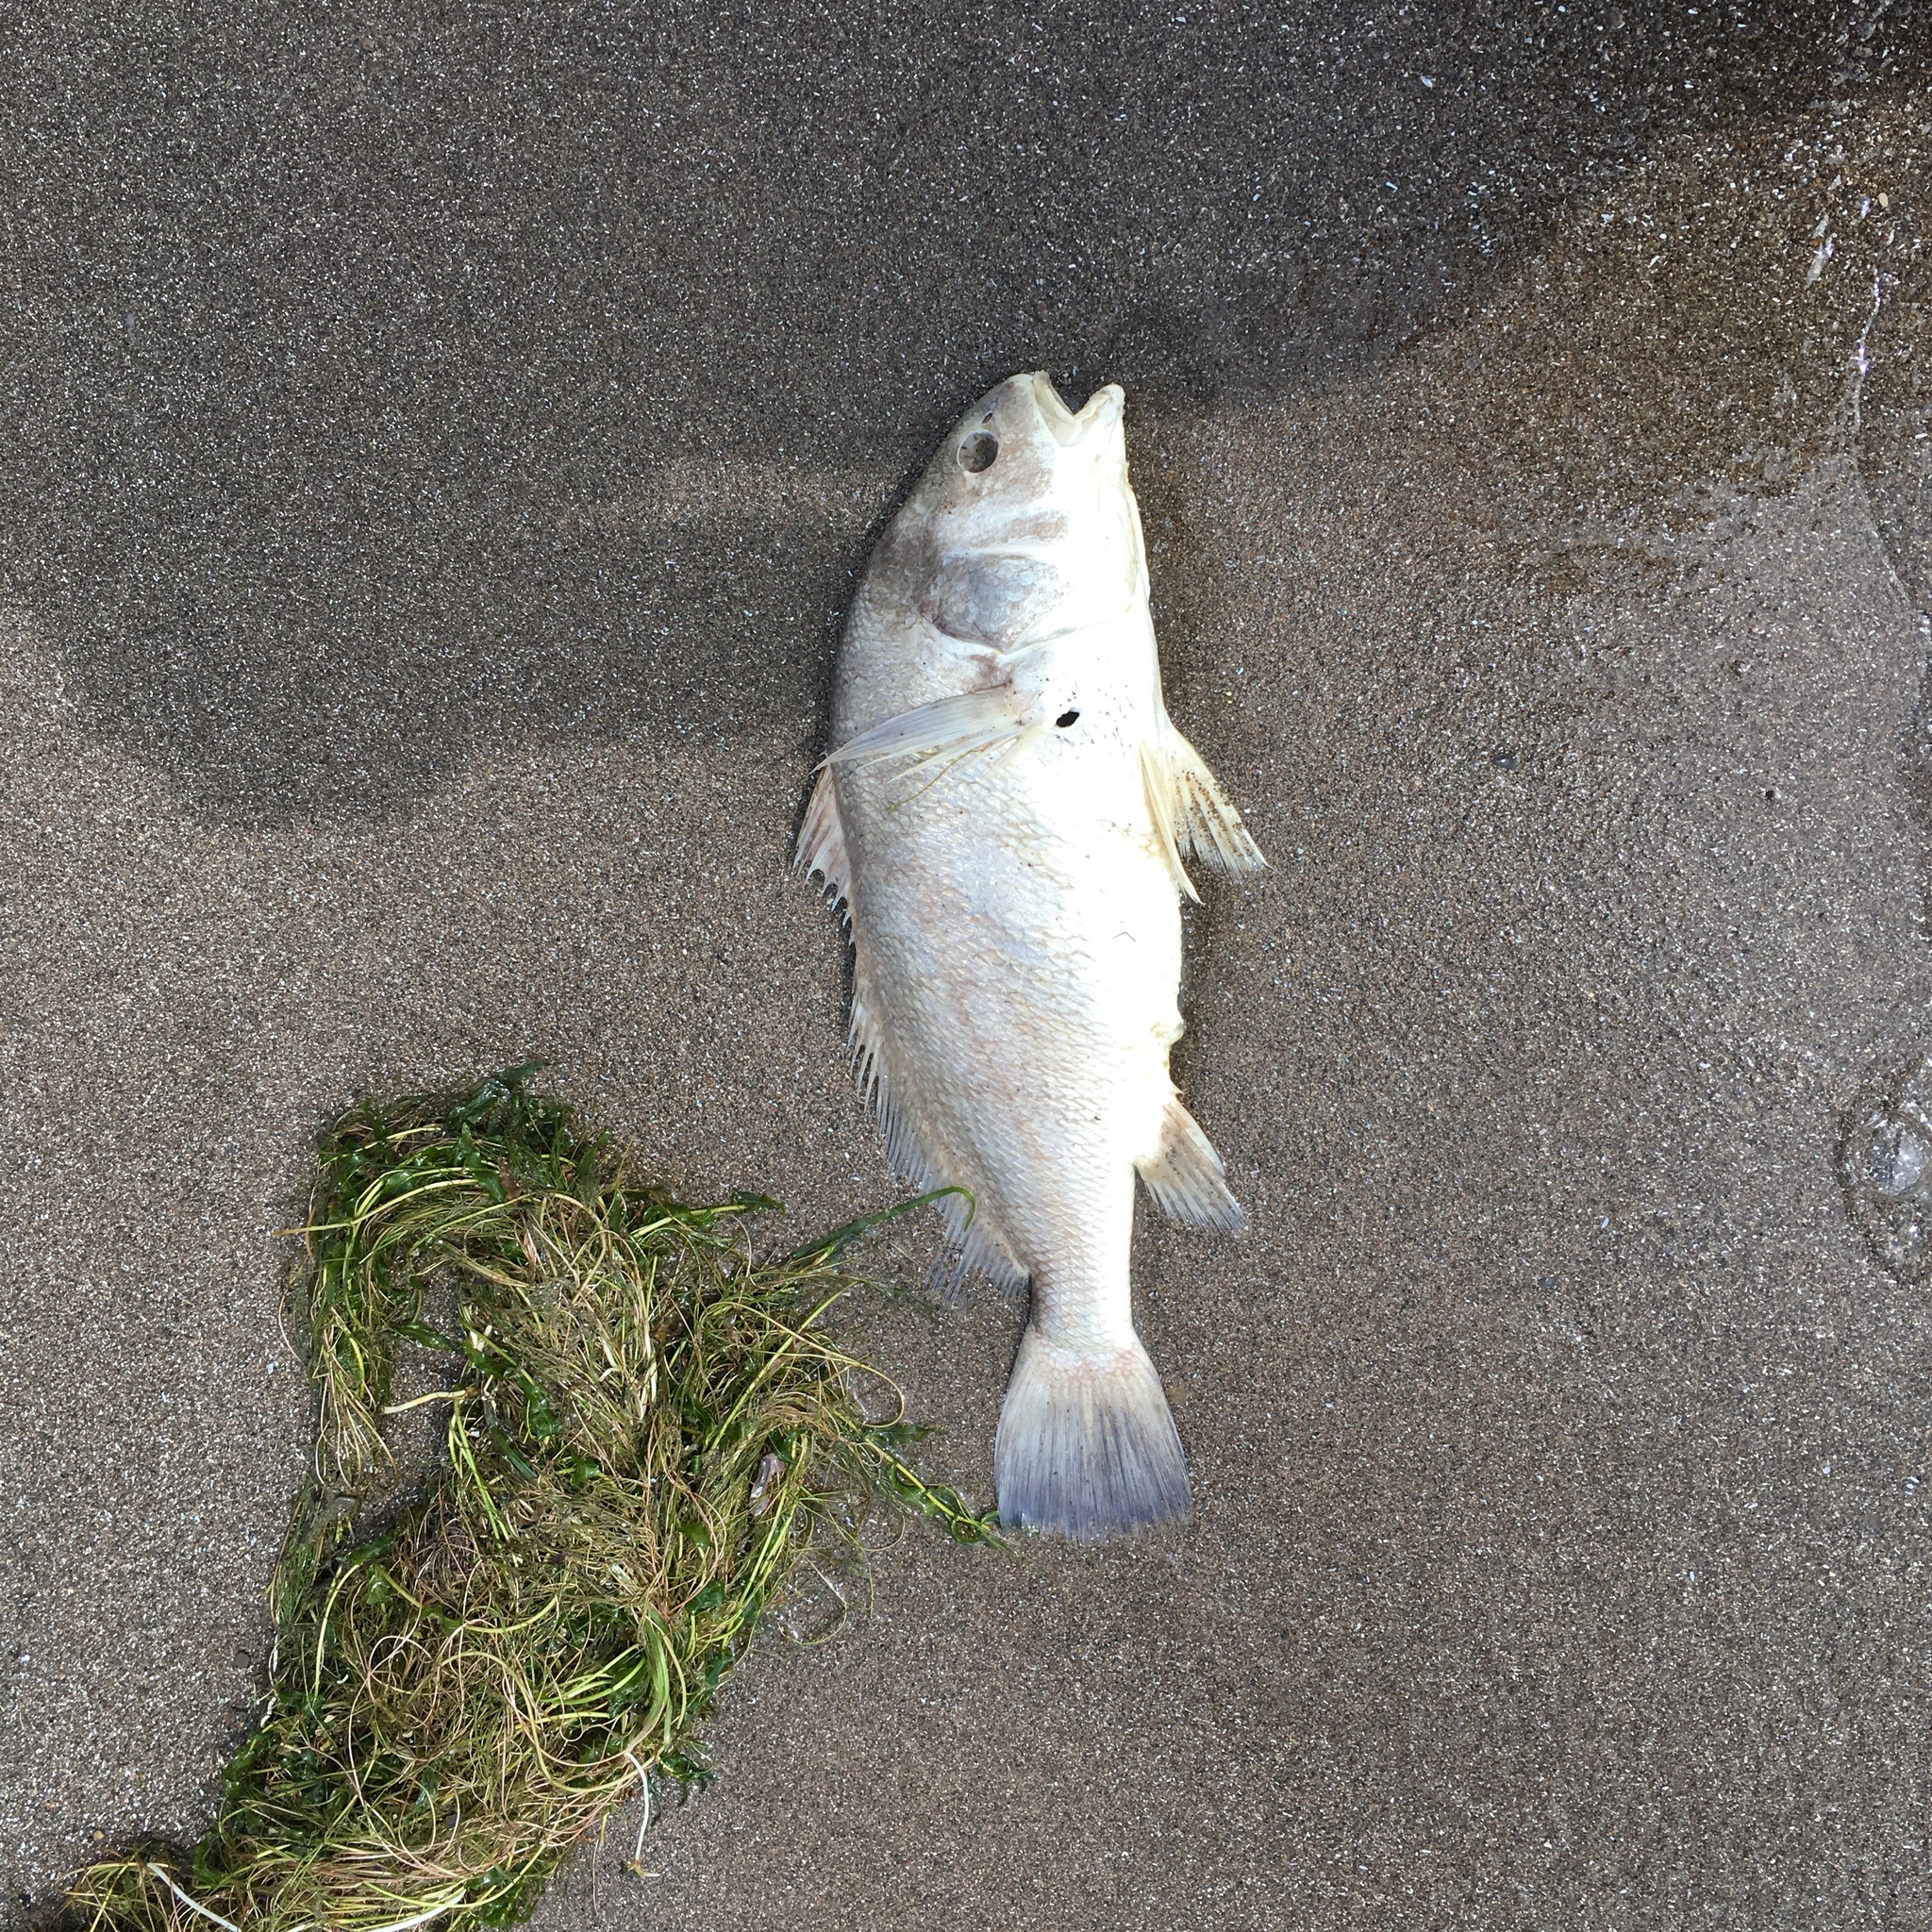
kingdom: Animalia
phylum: Chordata
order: Perciformes
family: Sciaenidae
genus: Aplodinotus
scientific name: Aplodinotus grunniens
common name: Freshwater drum
